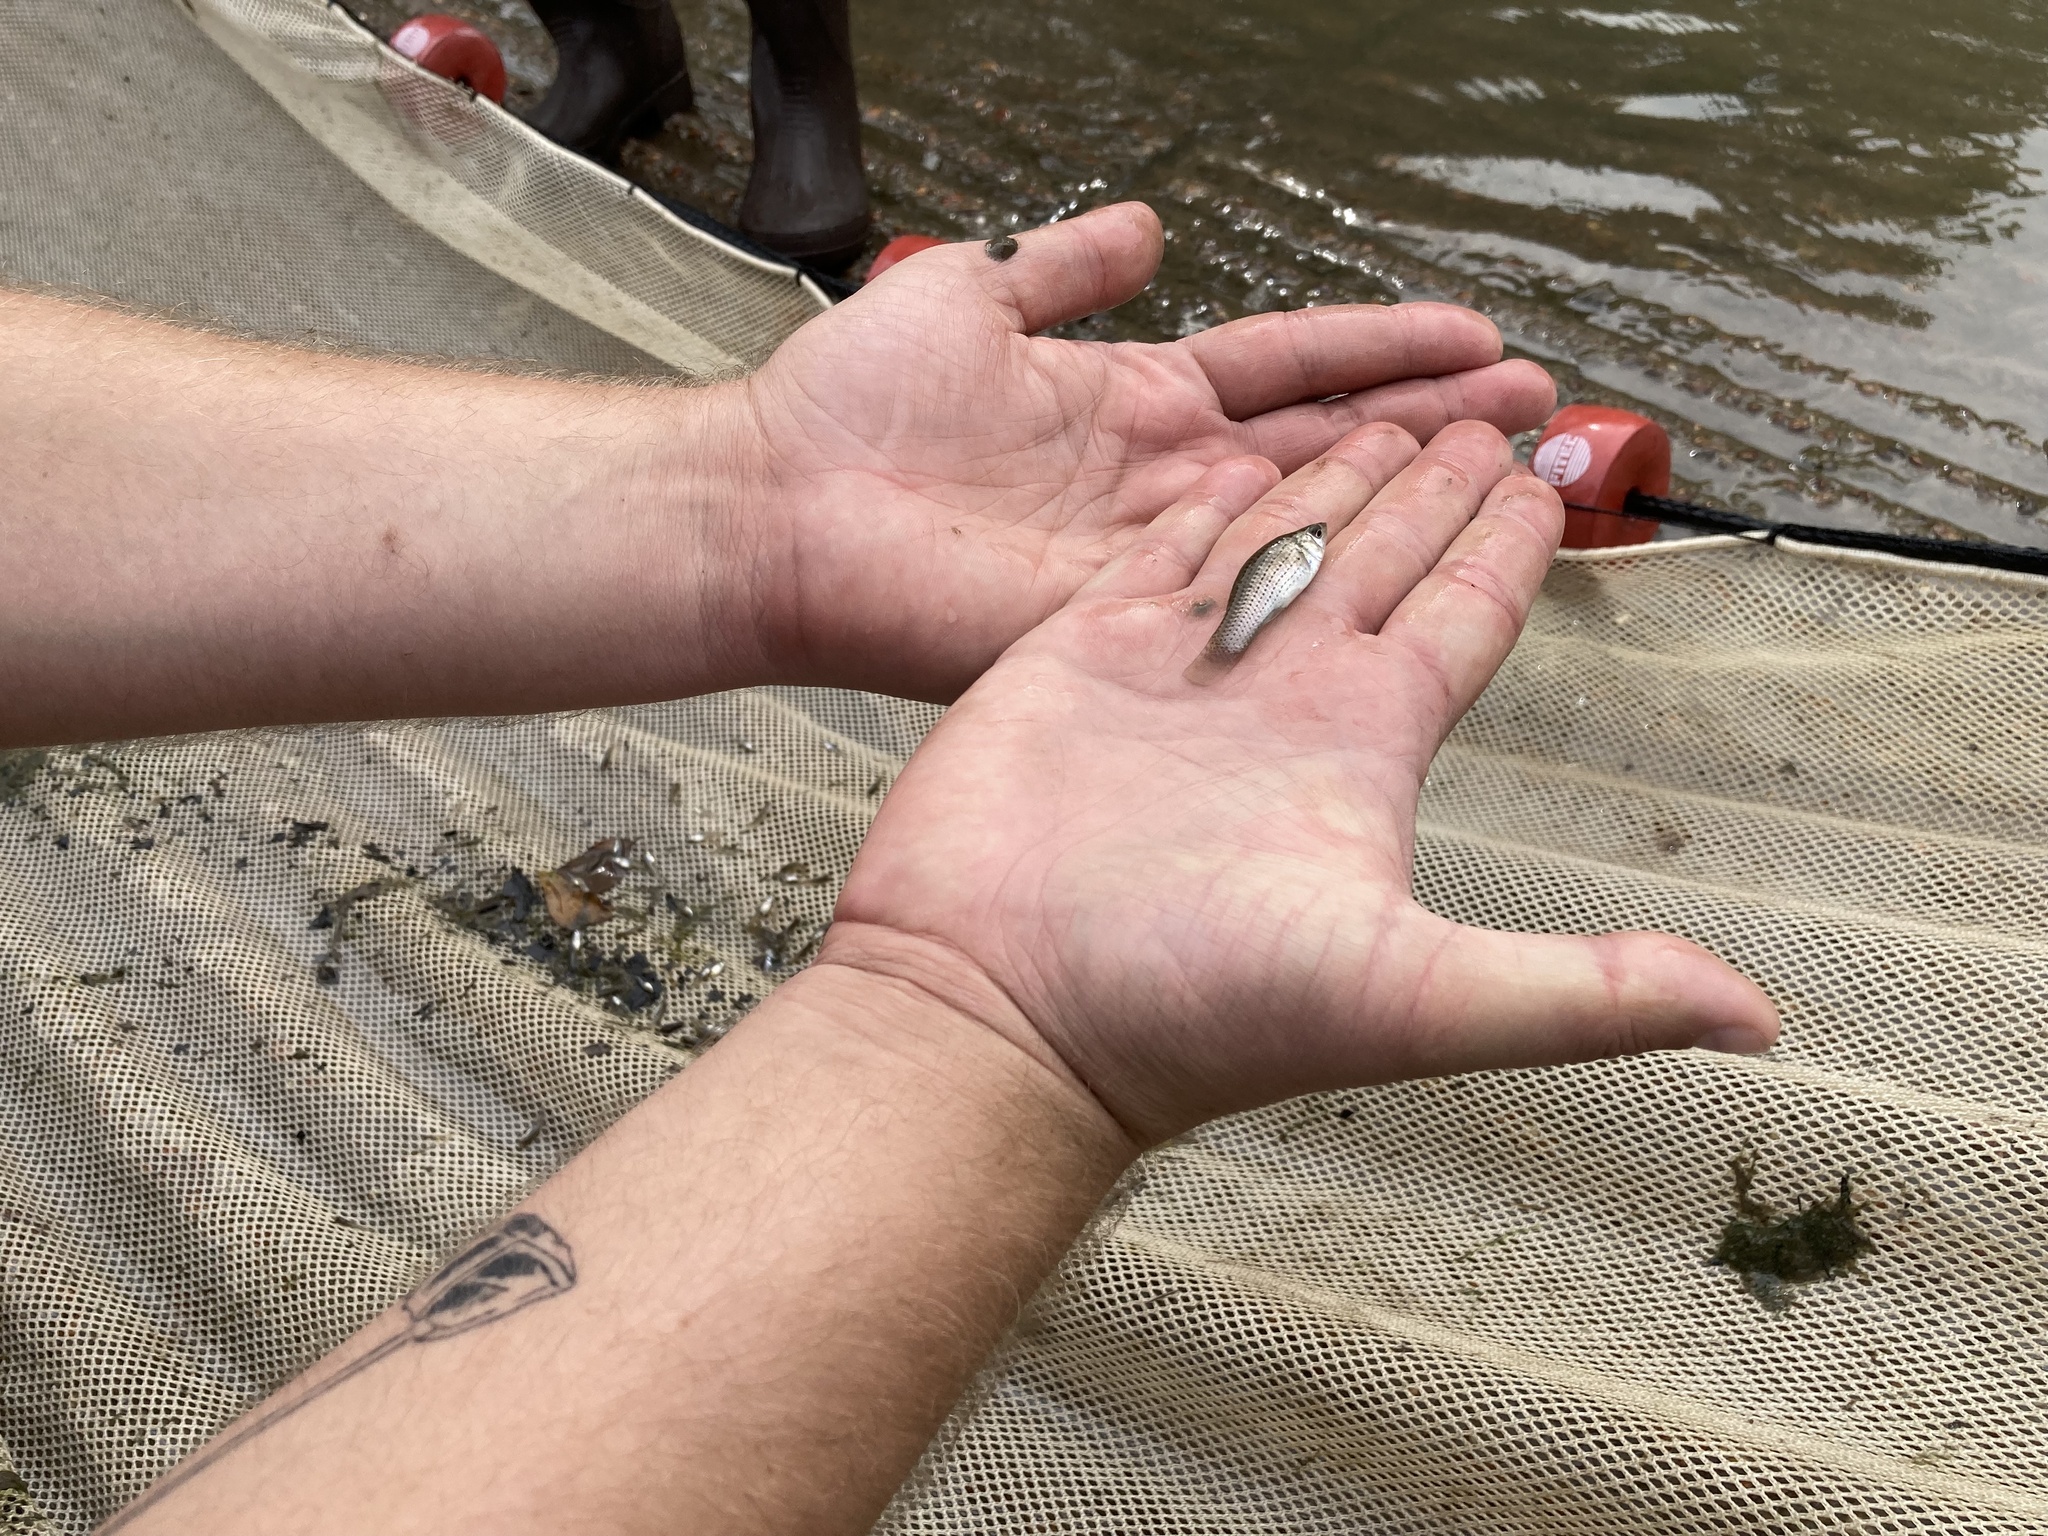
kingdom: Animalia
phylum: Chordata
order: Cyprinodontiformes
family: Poeciliidae
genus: Poecilia
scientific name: Poecilia latipinna
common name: Sailfin molly
